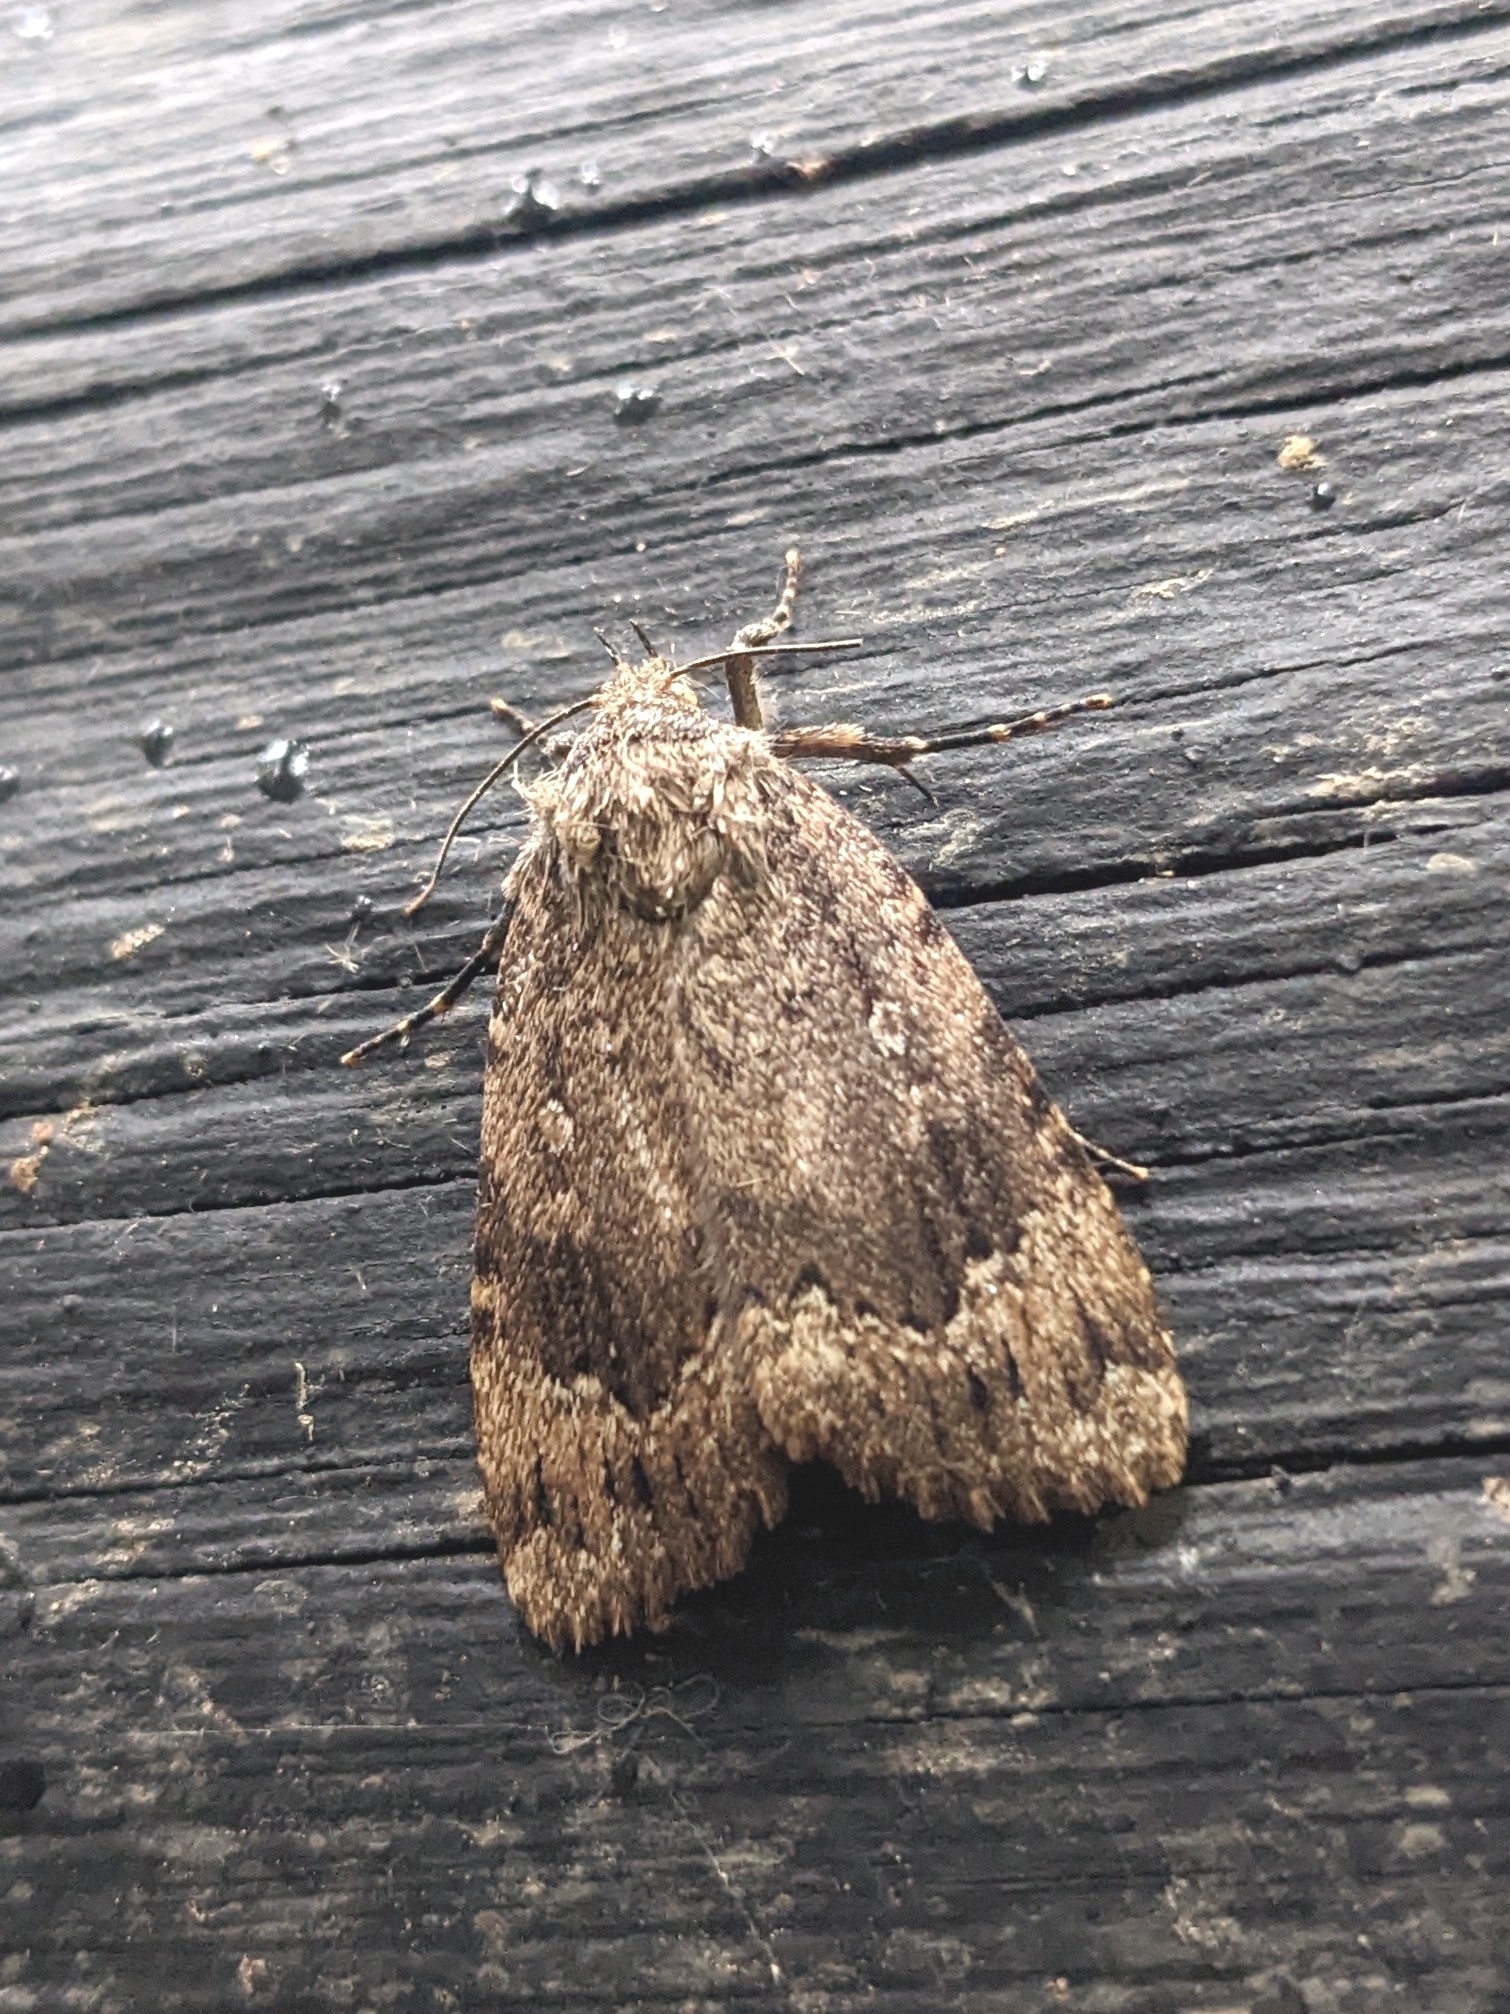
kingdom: Animalia
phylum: Arthropoda
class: Insecta
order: Lepidoptera
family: Noctuidae
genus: Amphipyra
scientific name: Amphipyra pyramidoides
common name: American copper underwing
